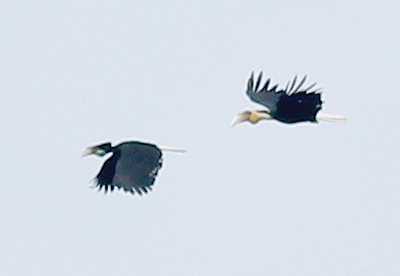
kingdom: Animalia
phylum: Chordata
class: Aves
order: Bucerotiformes
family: Bucerotidae
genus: Rhyticeros
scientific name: Rhyticeros undulatus
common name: Wreathed hornbill
